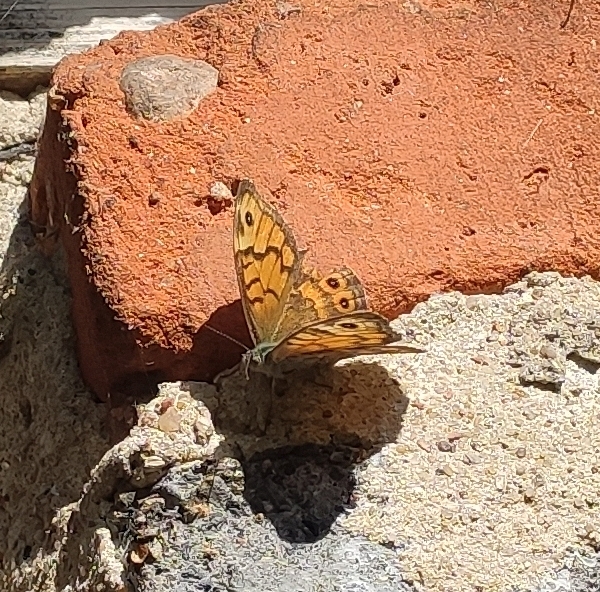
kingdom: Animalia
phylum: Arthropoda
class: Insecta
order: Lepidoptera
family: Nymphalidae
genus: Pararge
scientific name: Pararge Lasiommata megera
